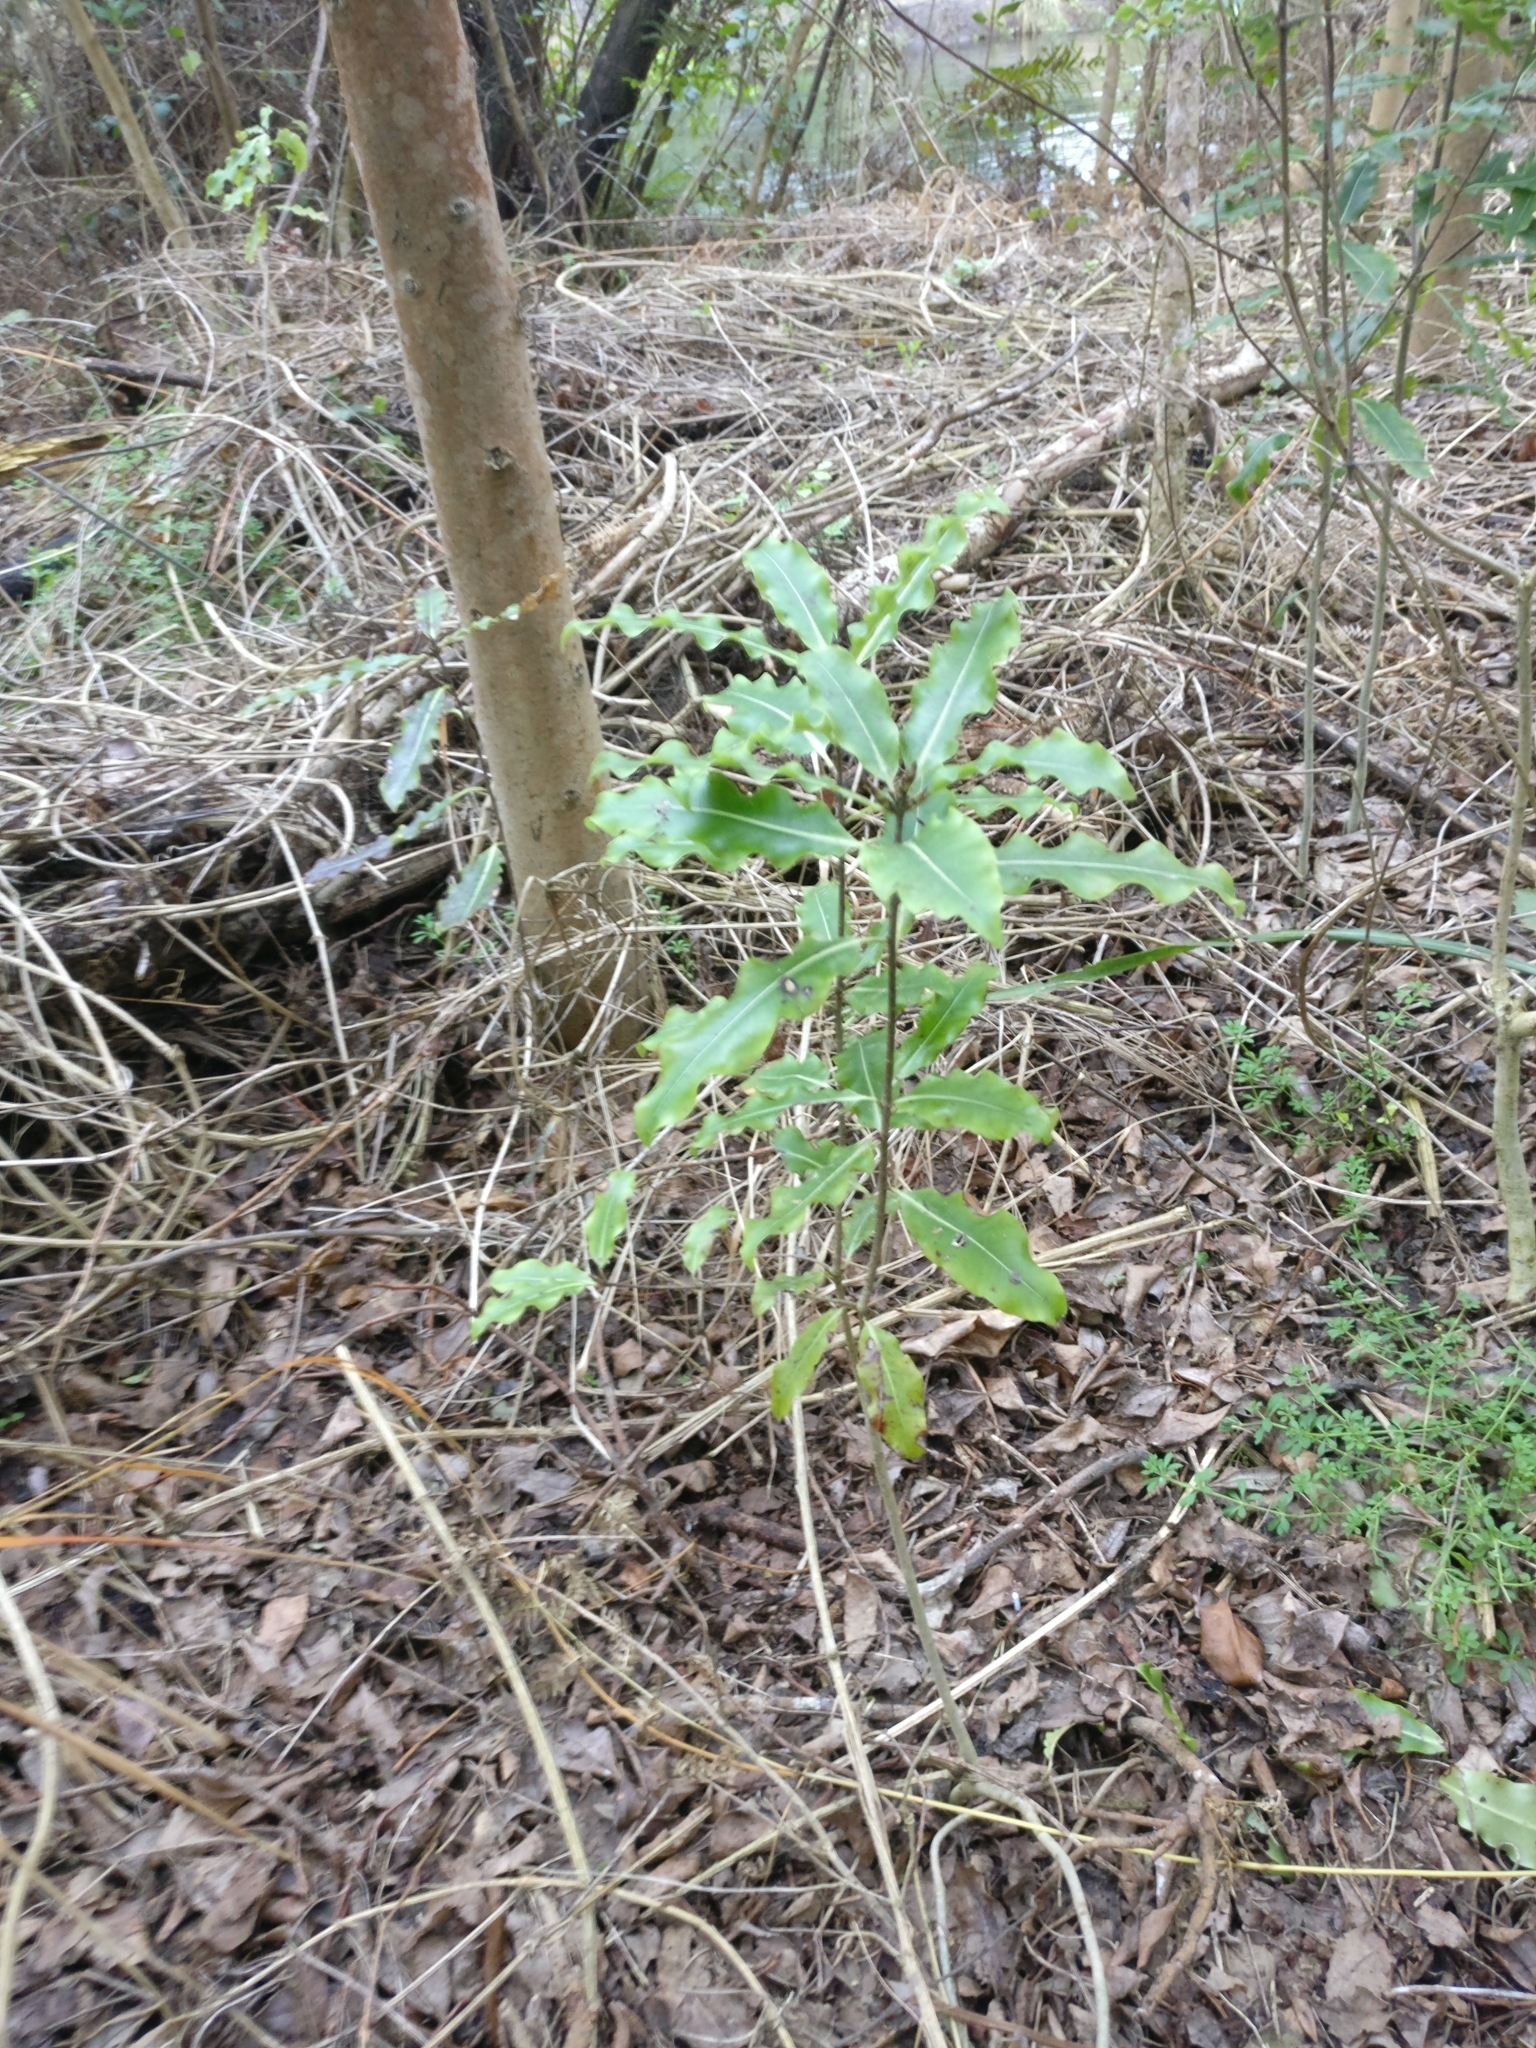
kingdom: Plantae
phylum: Tracheophyta
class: Magnoliopsida
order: Apiales
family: Pittosporaceae
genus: Pittosporum
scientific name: Pittosporum eugenioides
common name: Lemonwood
